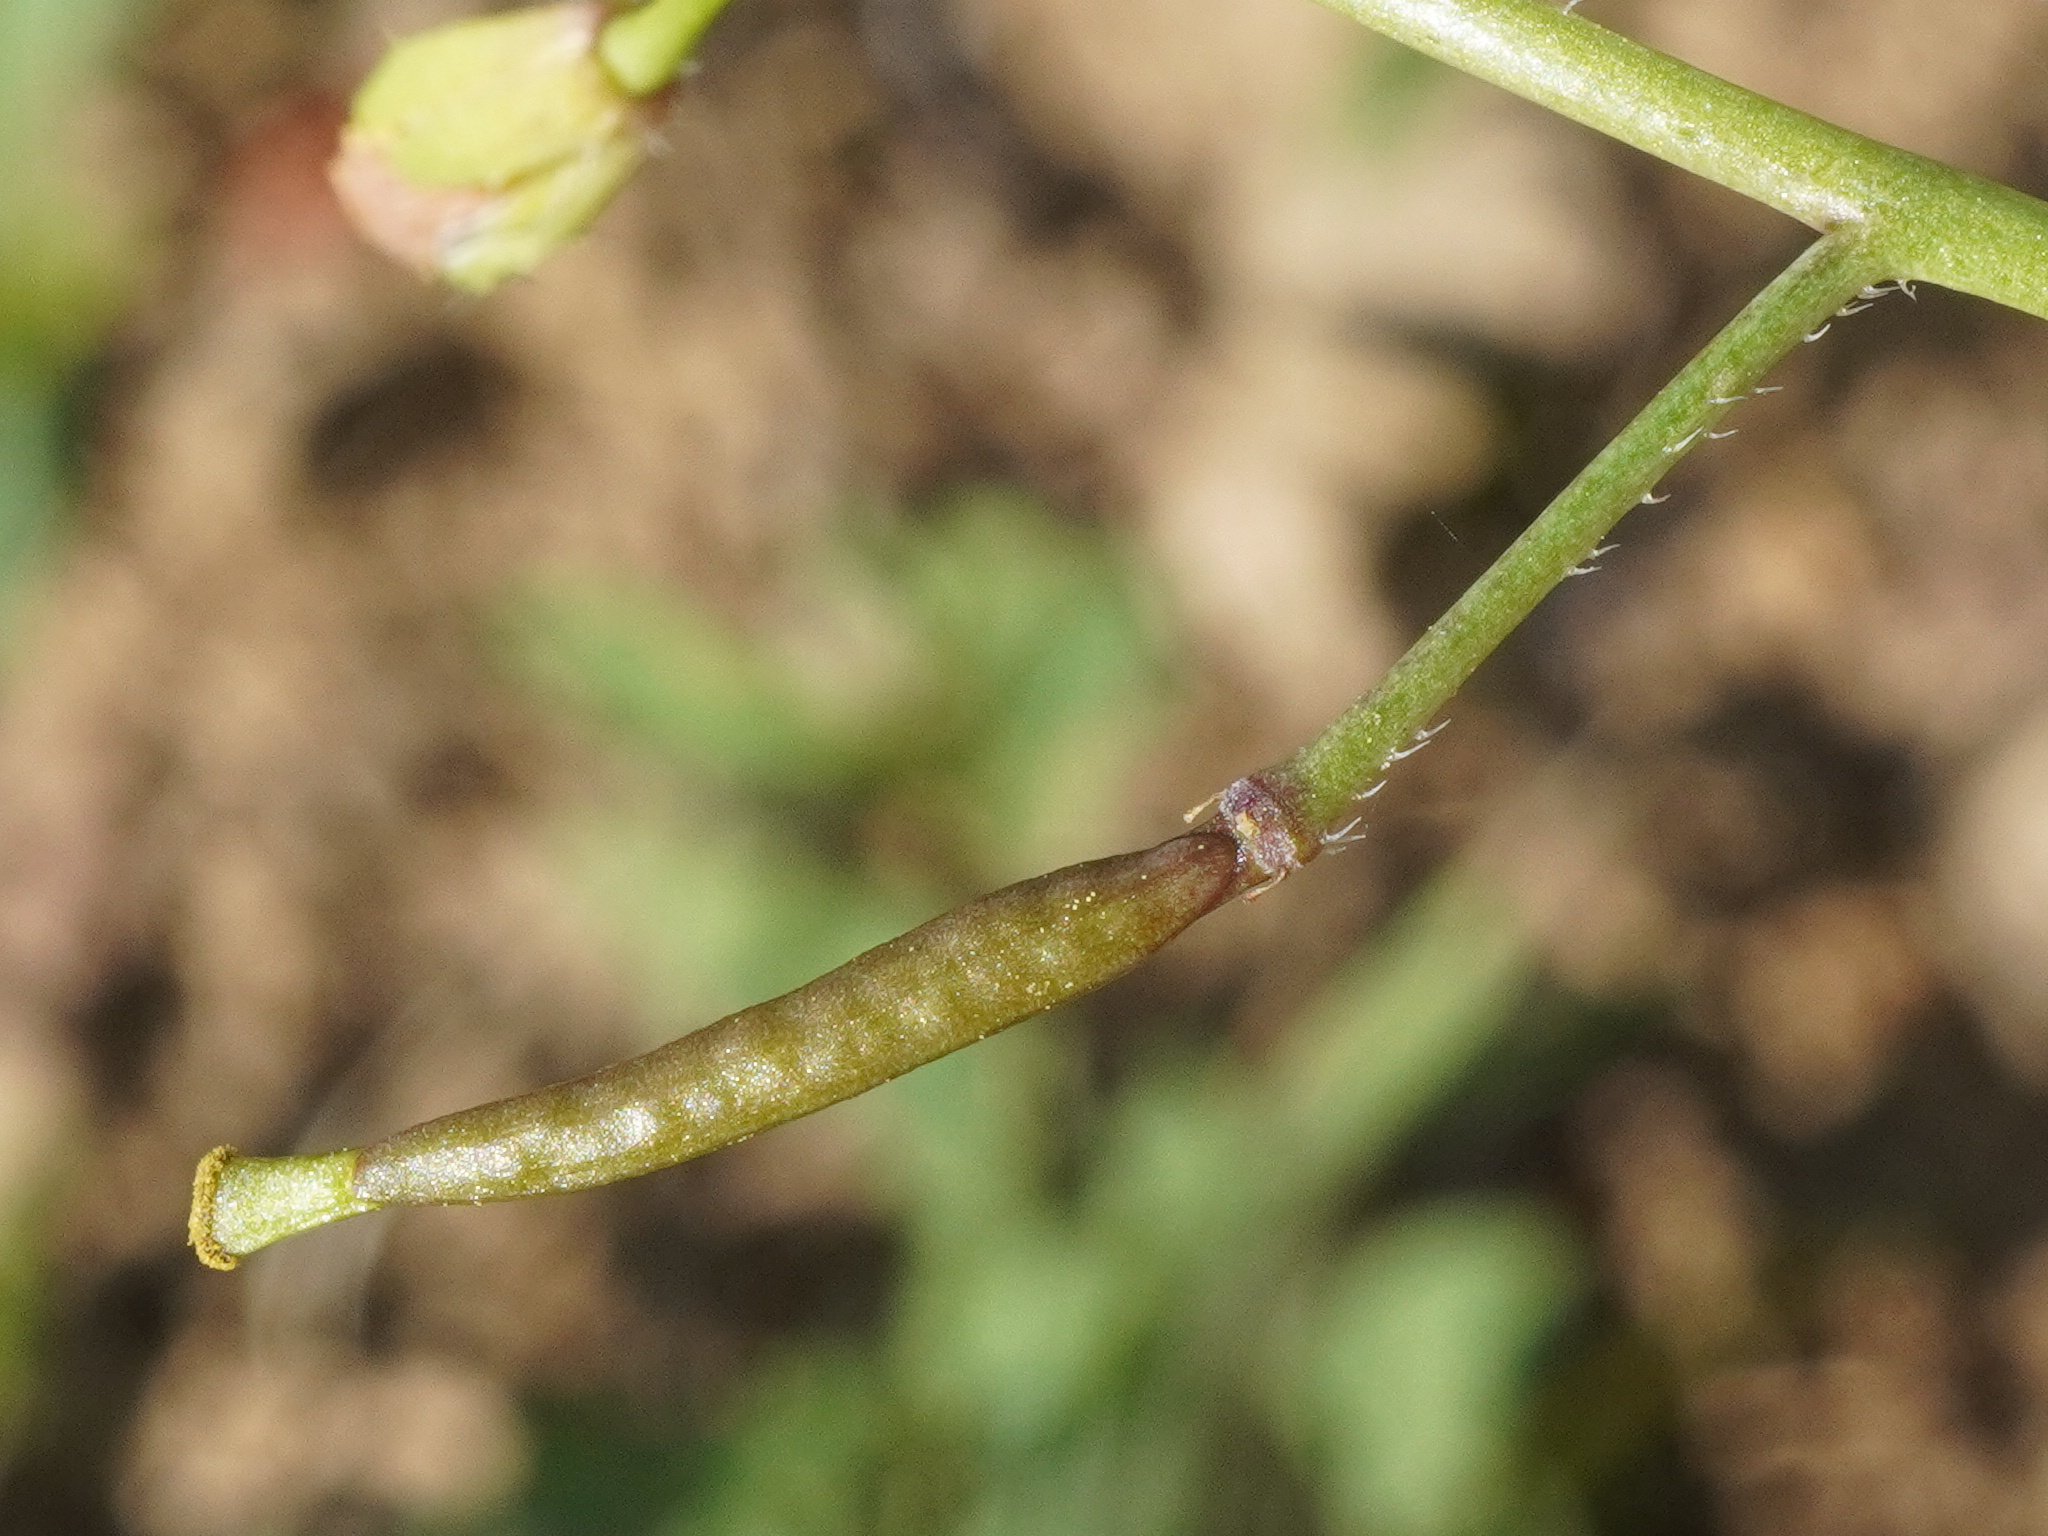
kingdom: Plantae
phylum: Tracheophyta
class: Magnoliopsida
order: Brassicales
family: Brassicaceae
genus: Diplotaxis
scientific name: Diplotaxis muralis
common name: Annual wall-rocket
